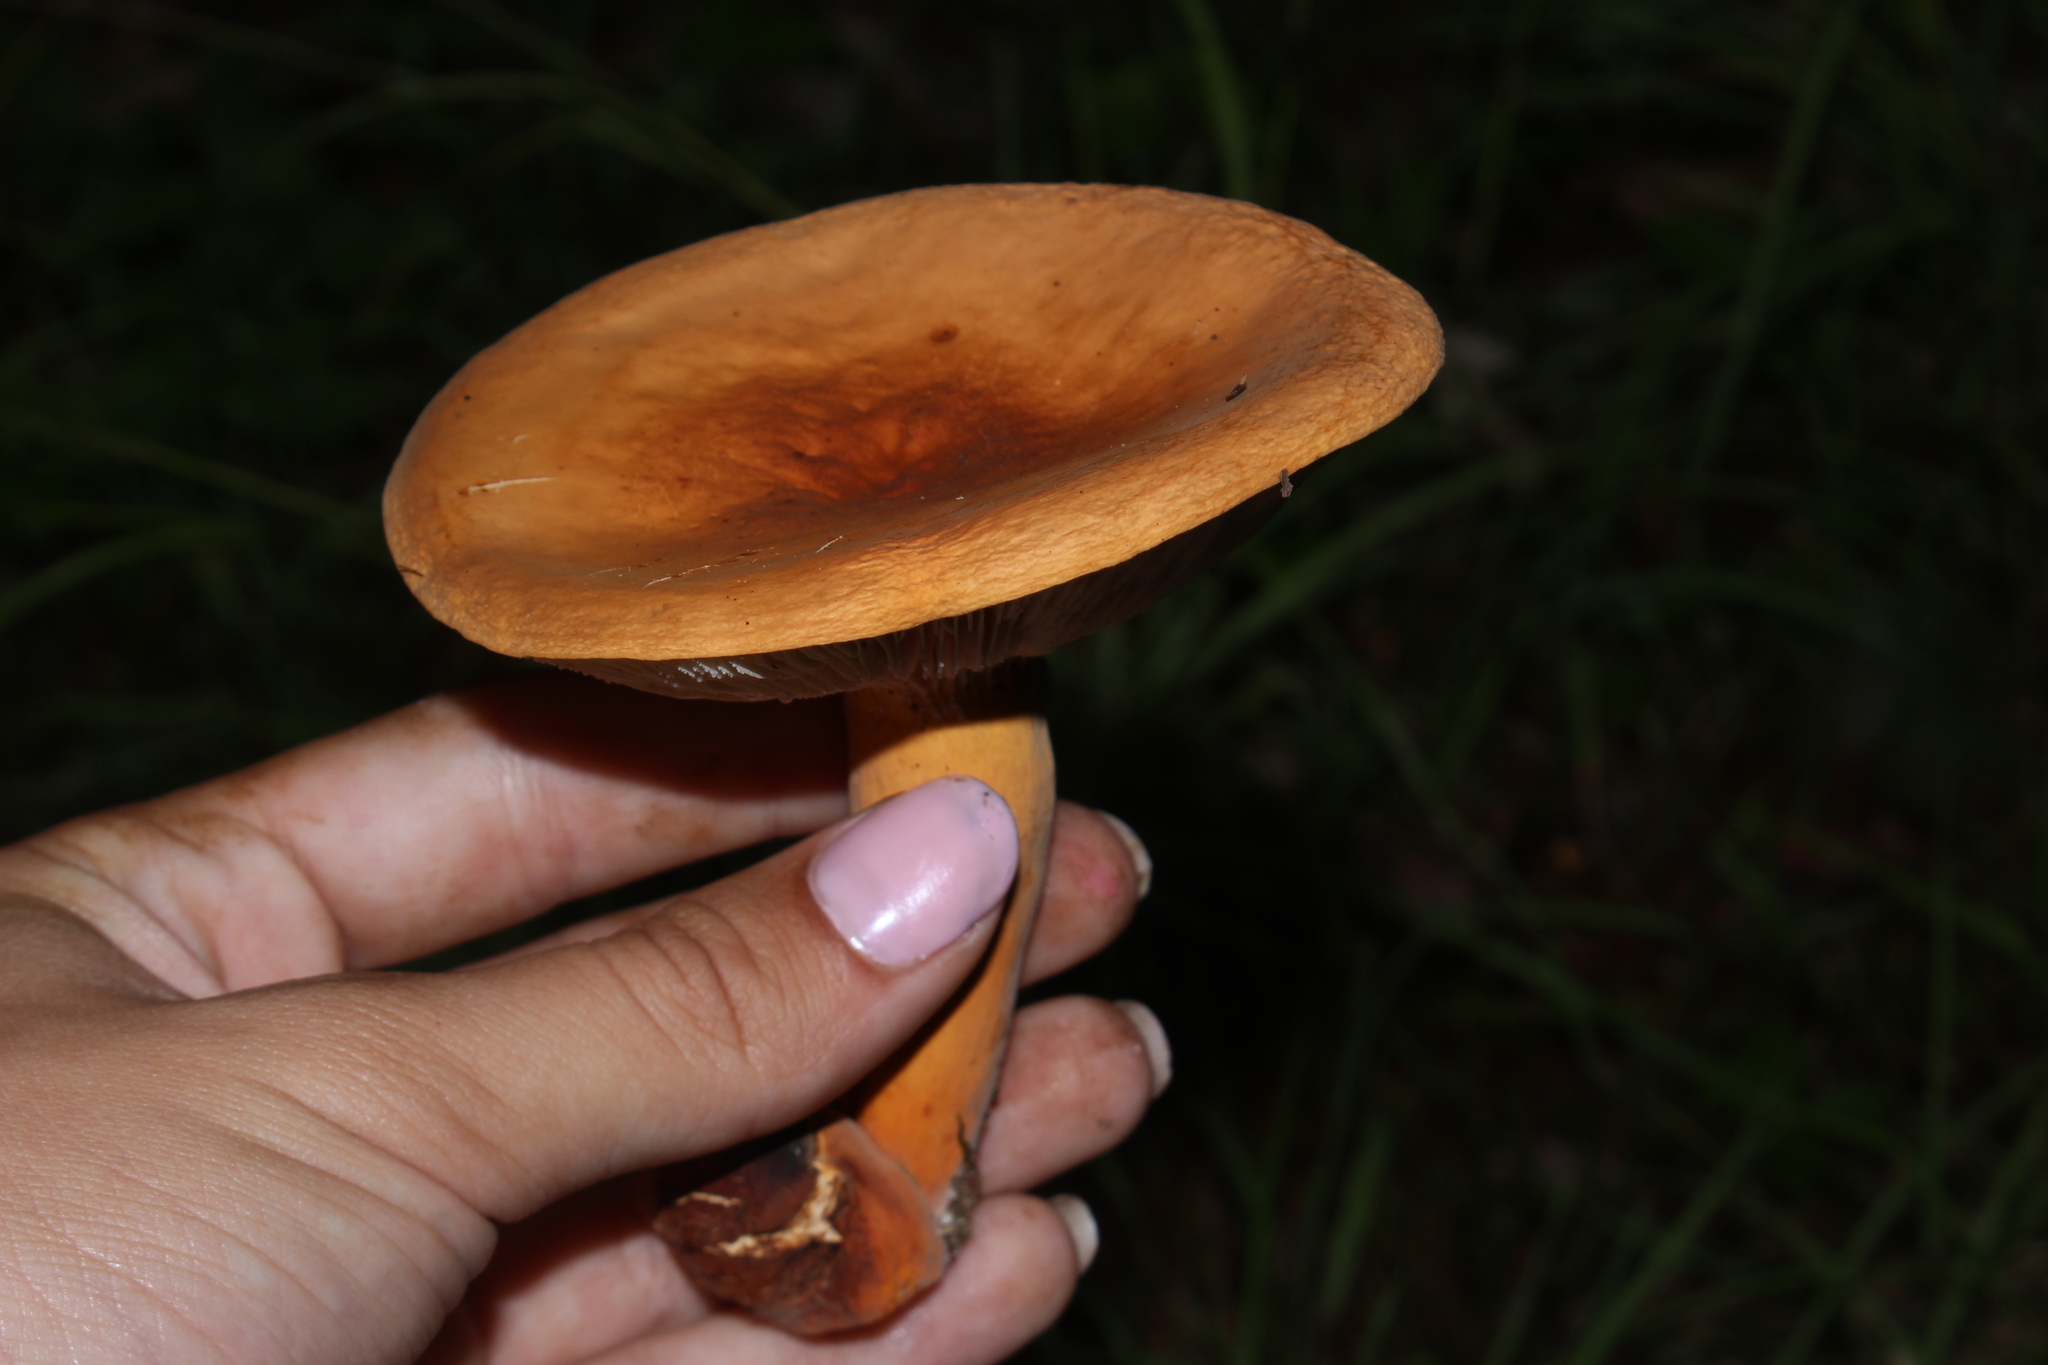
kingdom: Fungi
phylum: Basidiomycota
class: Agaricomycetes
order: Russulales
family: Russulaceae
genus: Lactifluus
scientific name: Lactifluus volemus
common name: Fishy milkcap
